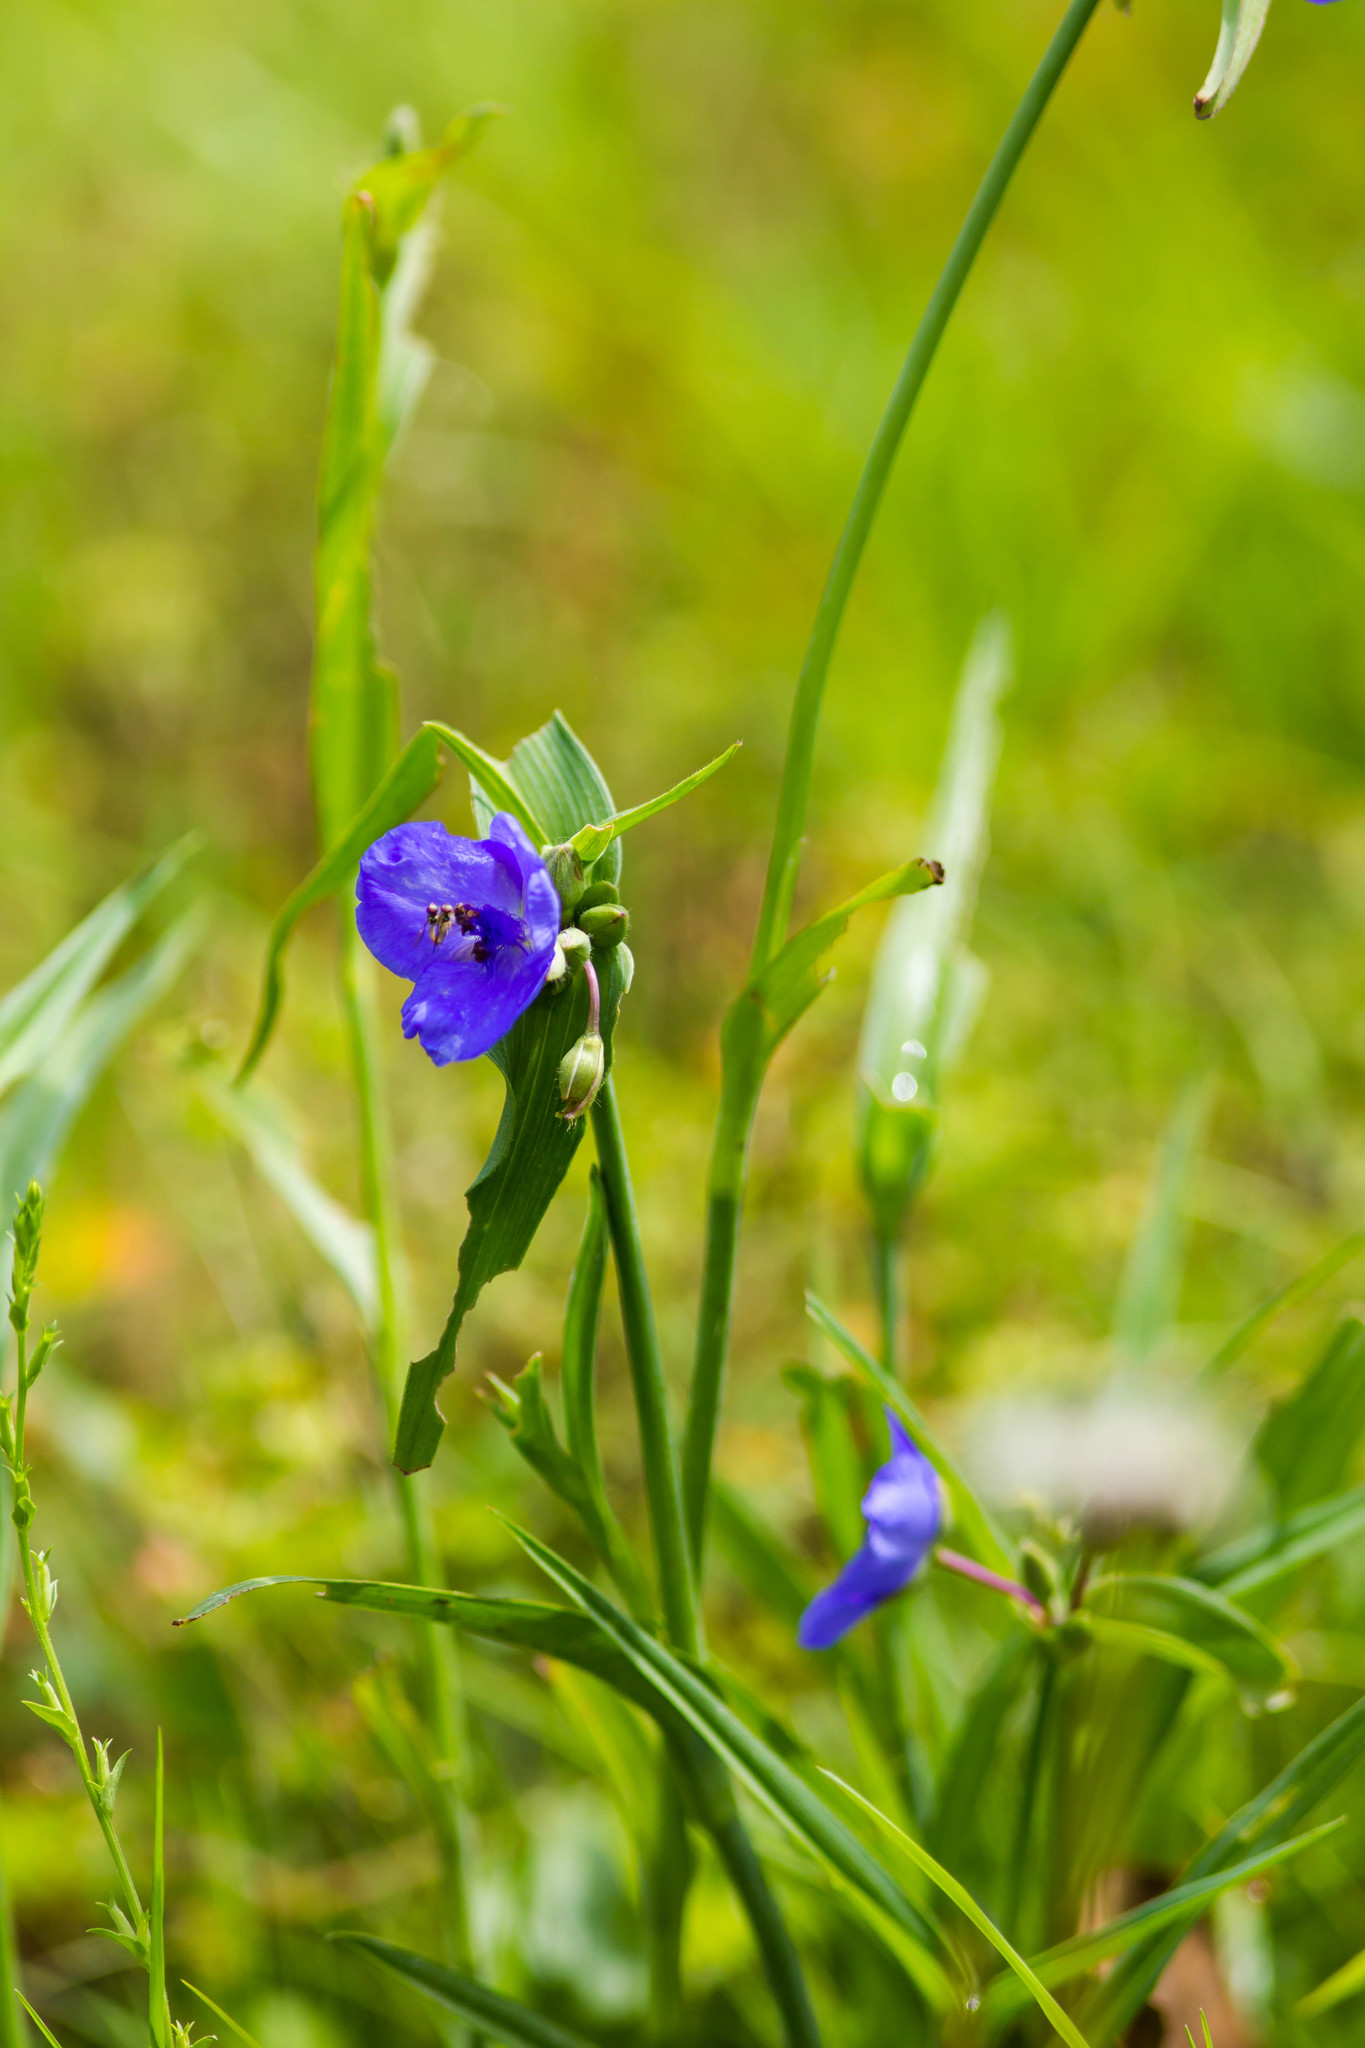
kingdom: Plantae
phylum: Tracheophyta
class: Liliopsida
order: Commelinales
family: Commelinaceae
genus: Tradescantia
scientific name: Tradescantia ohiensis
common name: Ohio spiderwort
